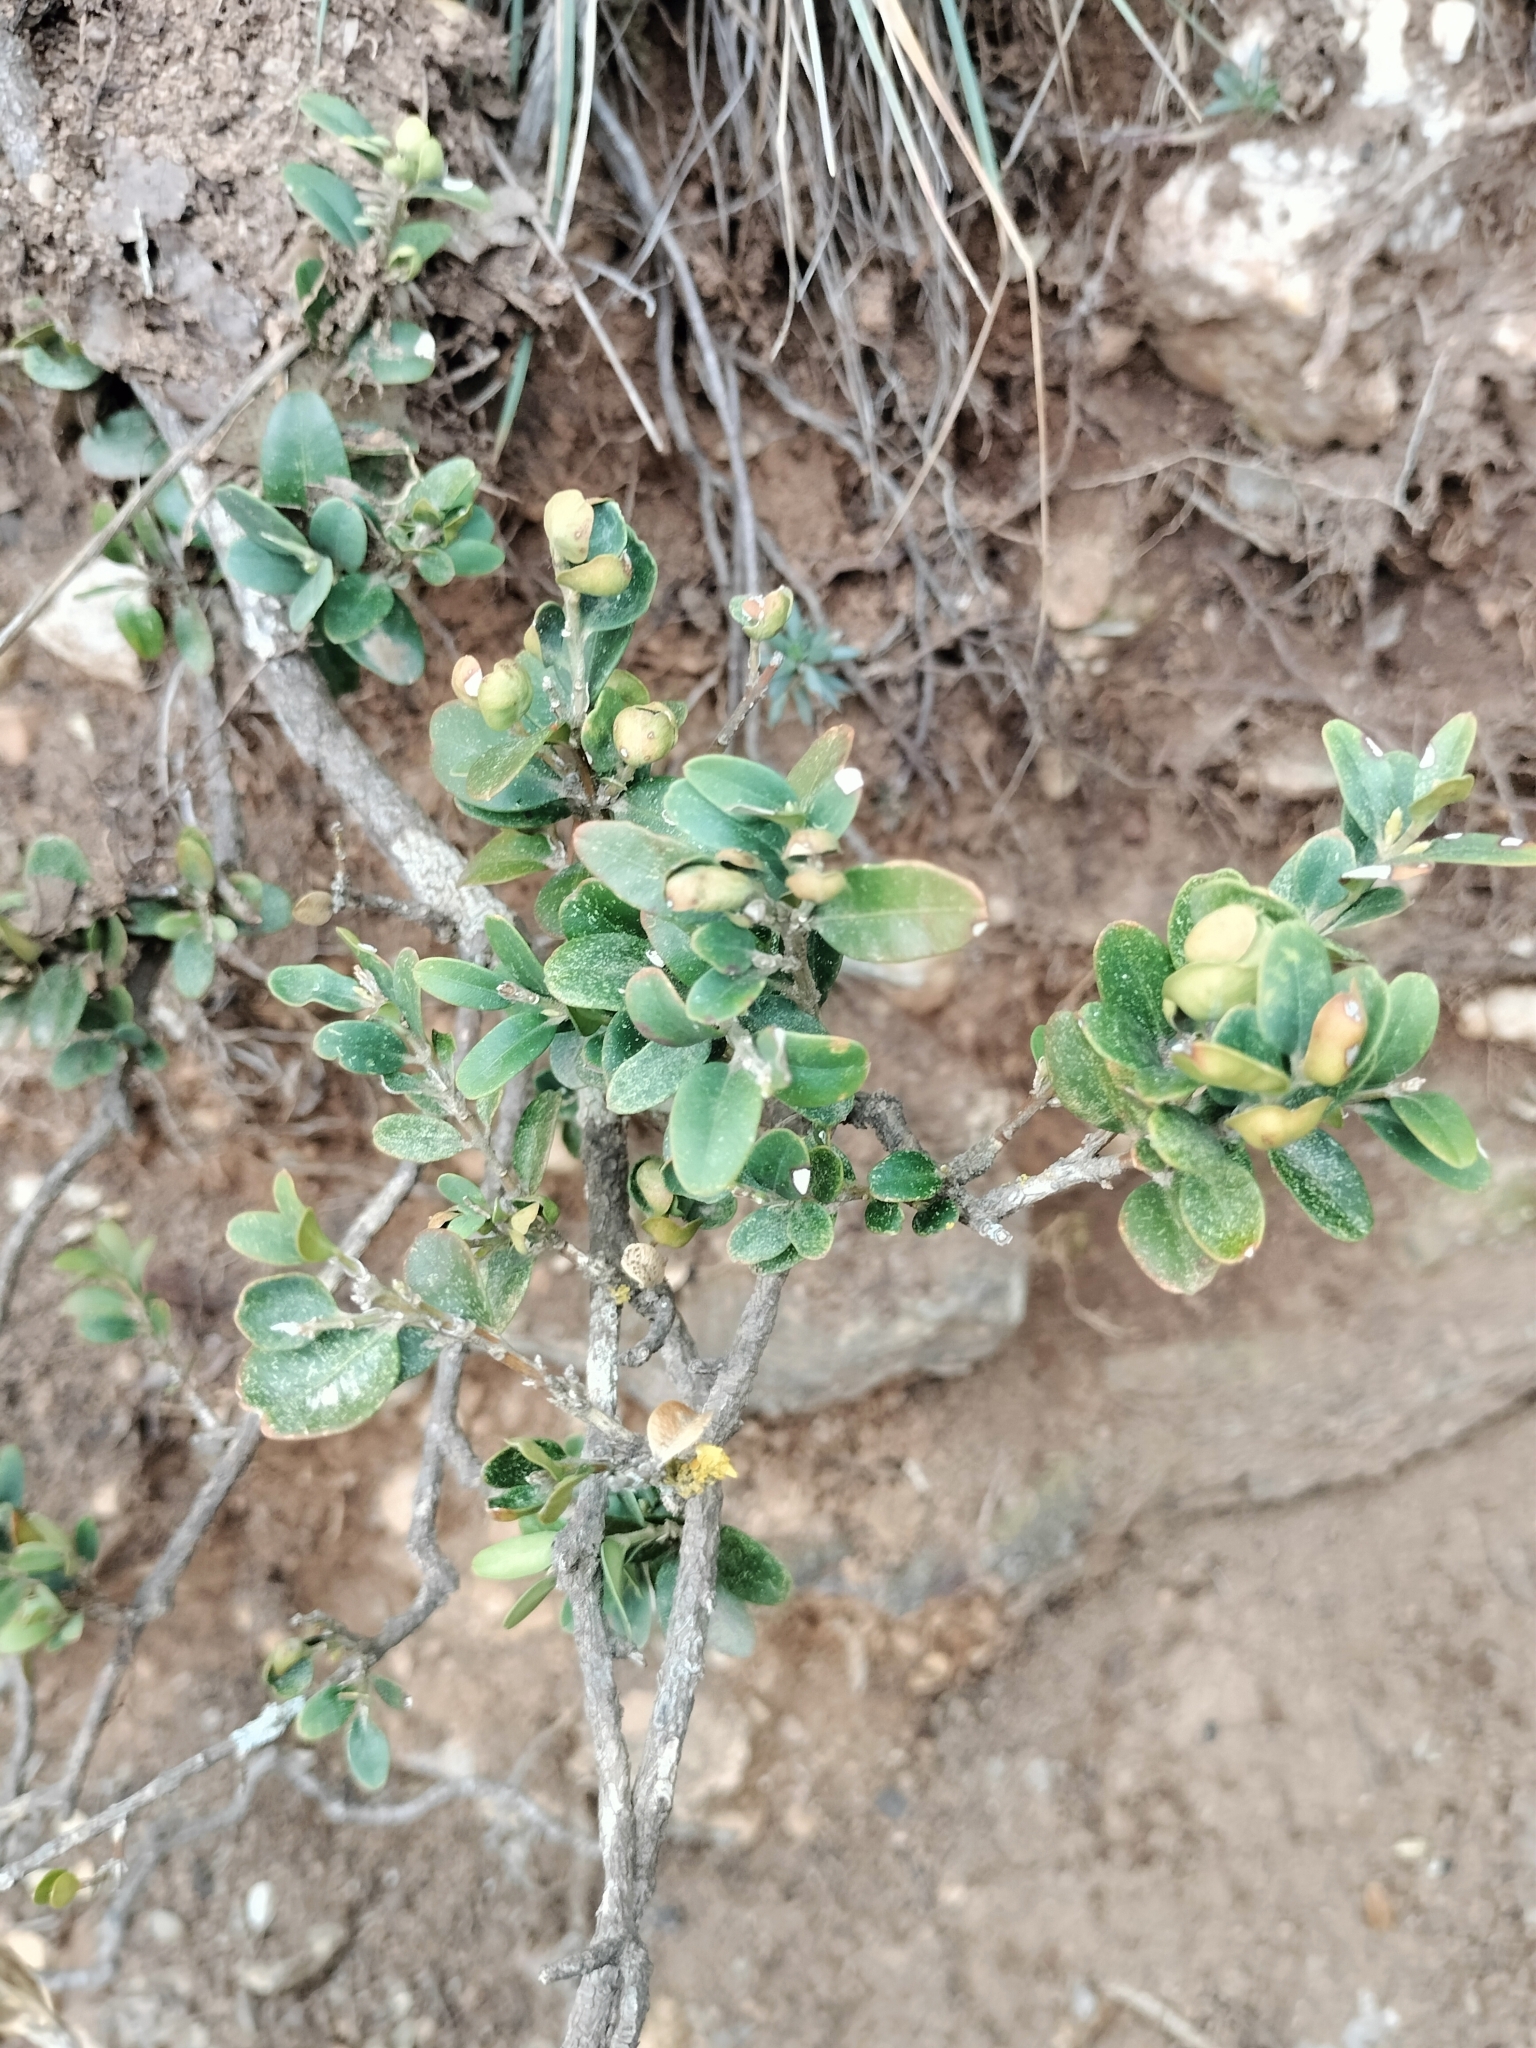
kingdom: Plantae
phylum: Tracheophyta
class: Magnoliopsida
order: Buxales
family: Buxaceae
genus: Buxus
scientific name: Buxus sempervirens
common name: Box
